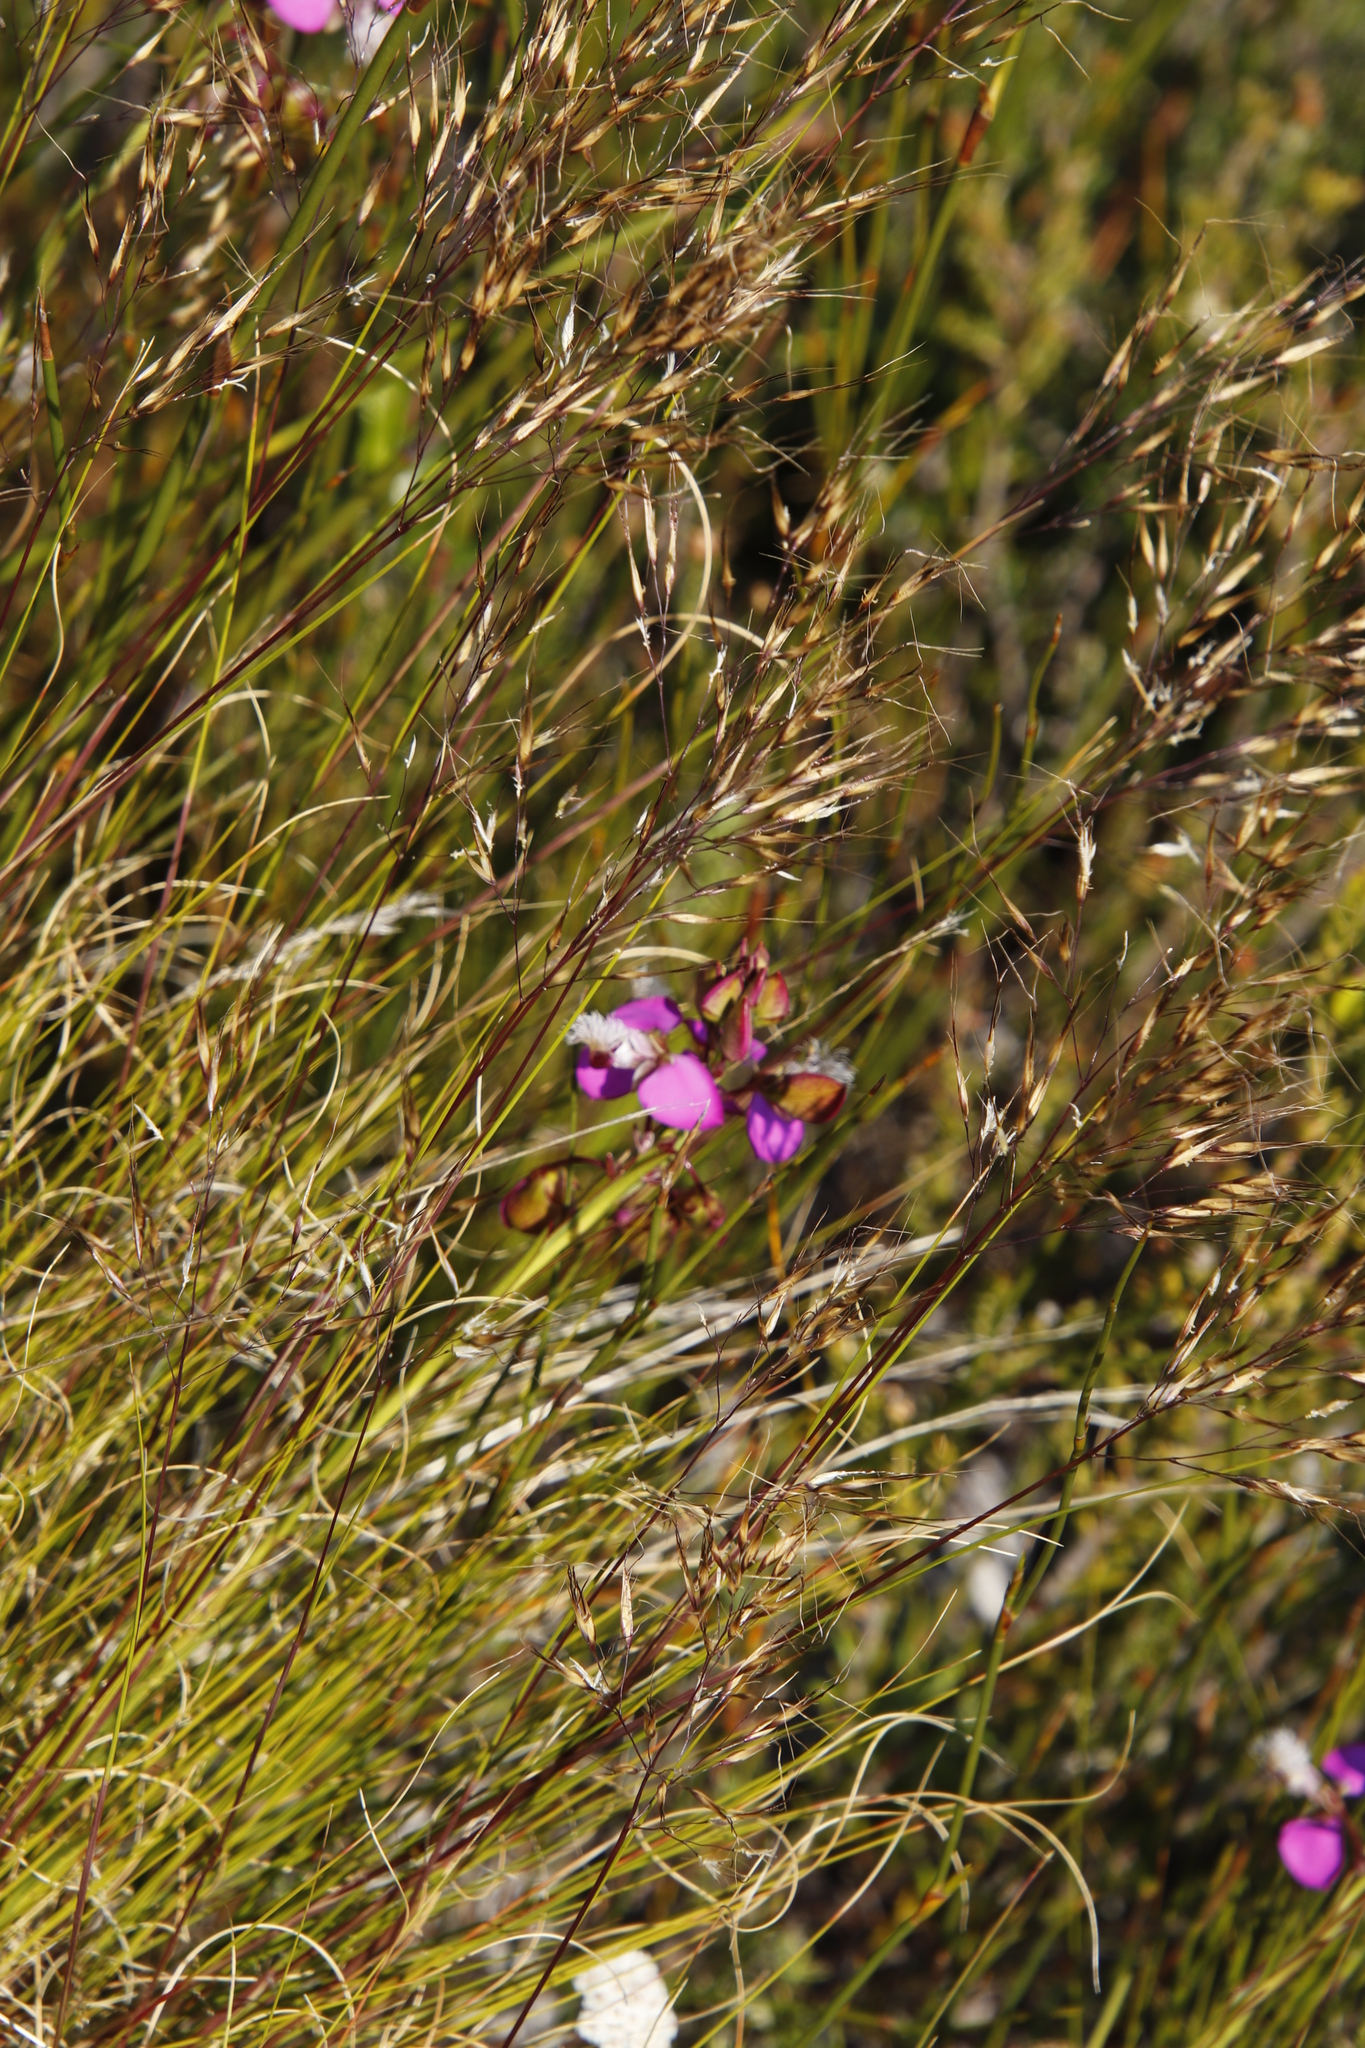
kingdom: Plantae
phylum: Tracheophyta
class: Magnoliopsida
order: Fabales
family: Polygalaceae
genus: Polygala
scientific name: Polygala bracteolata
